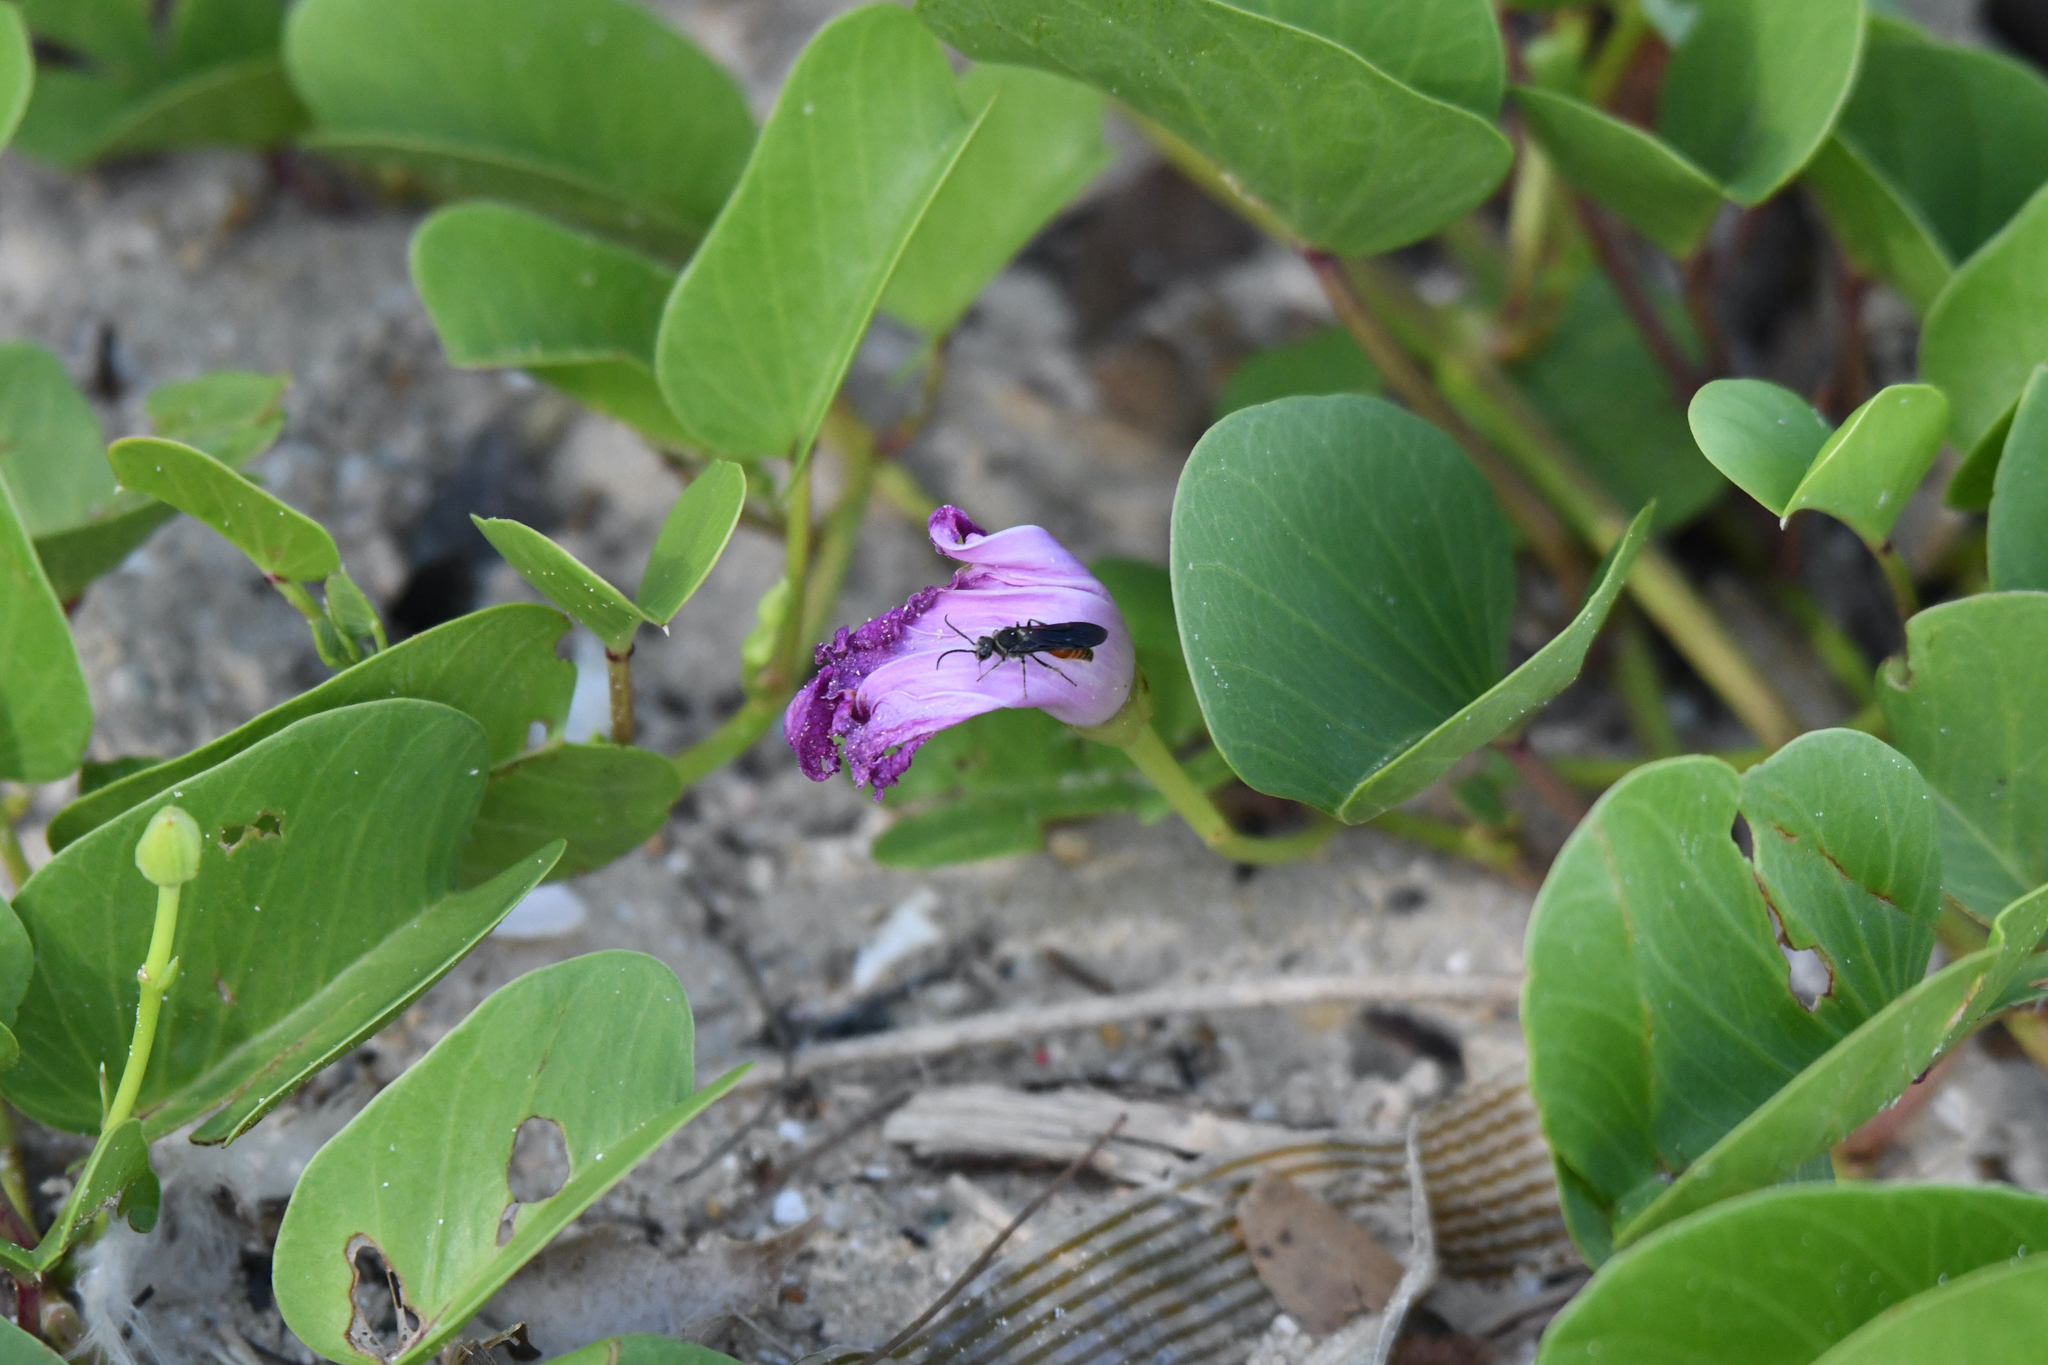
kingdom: Plantae
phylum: Tracheophyta
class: Magnoliopsida
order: Solanales
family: Convolvulaceae
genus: Ipomoea
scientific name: Ipomoea pes-caprae
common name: Beach morning glory
